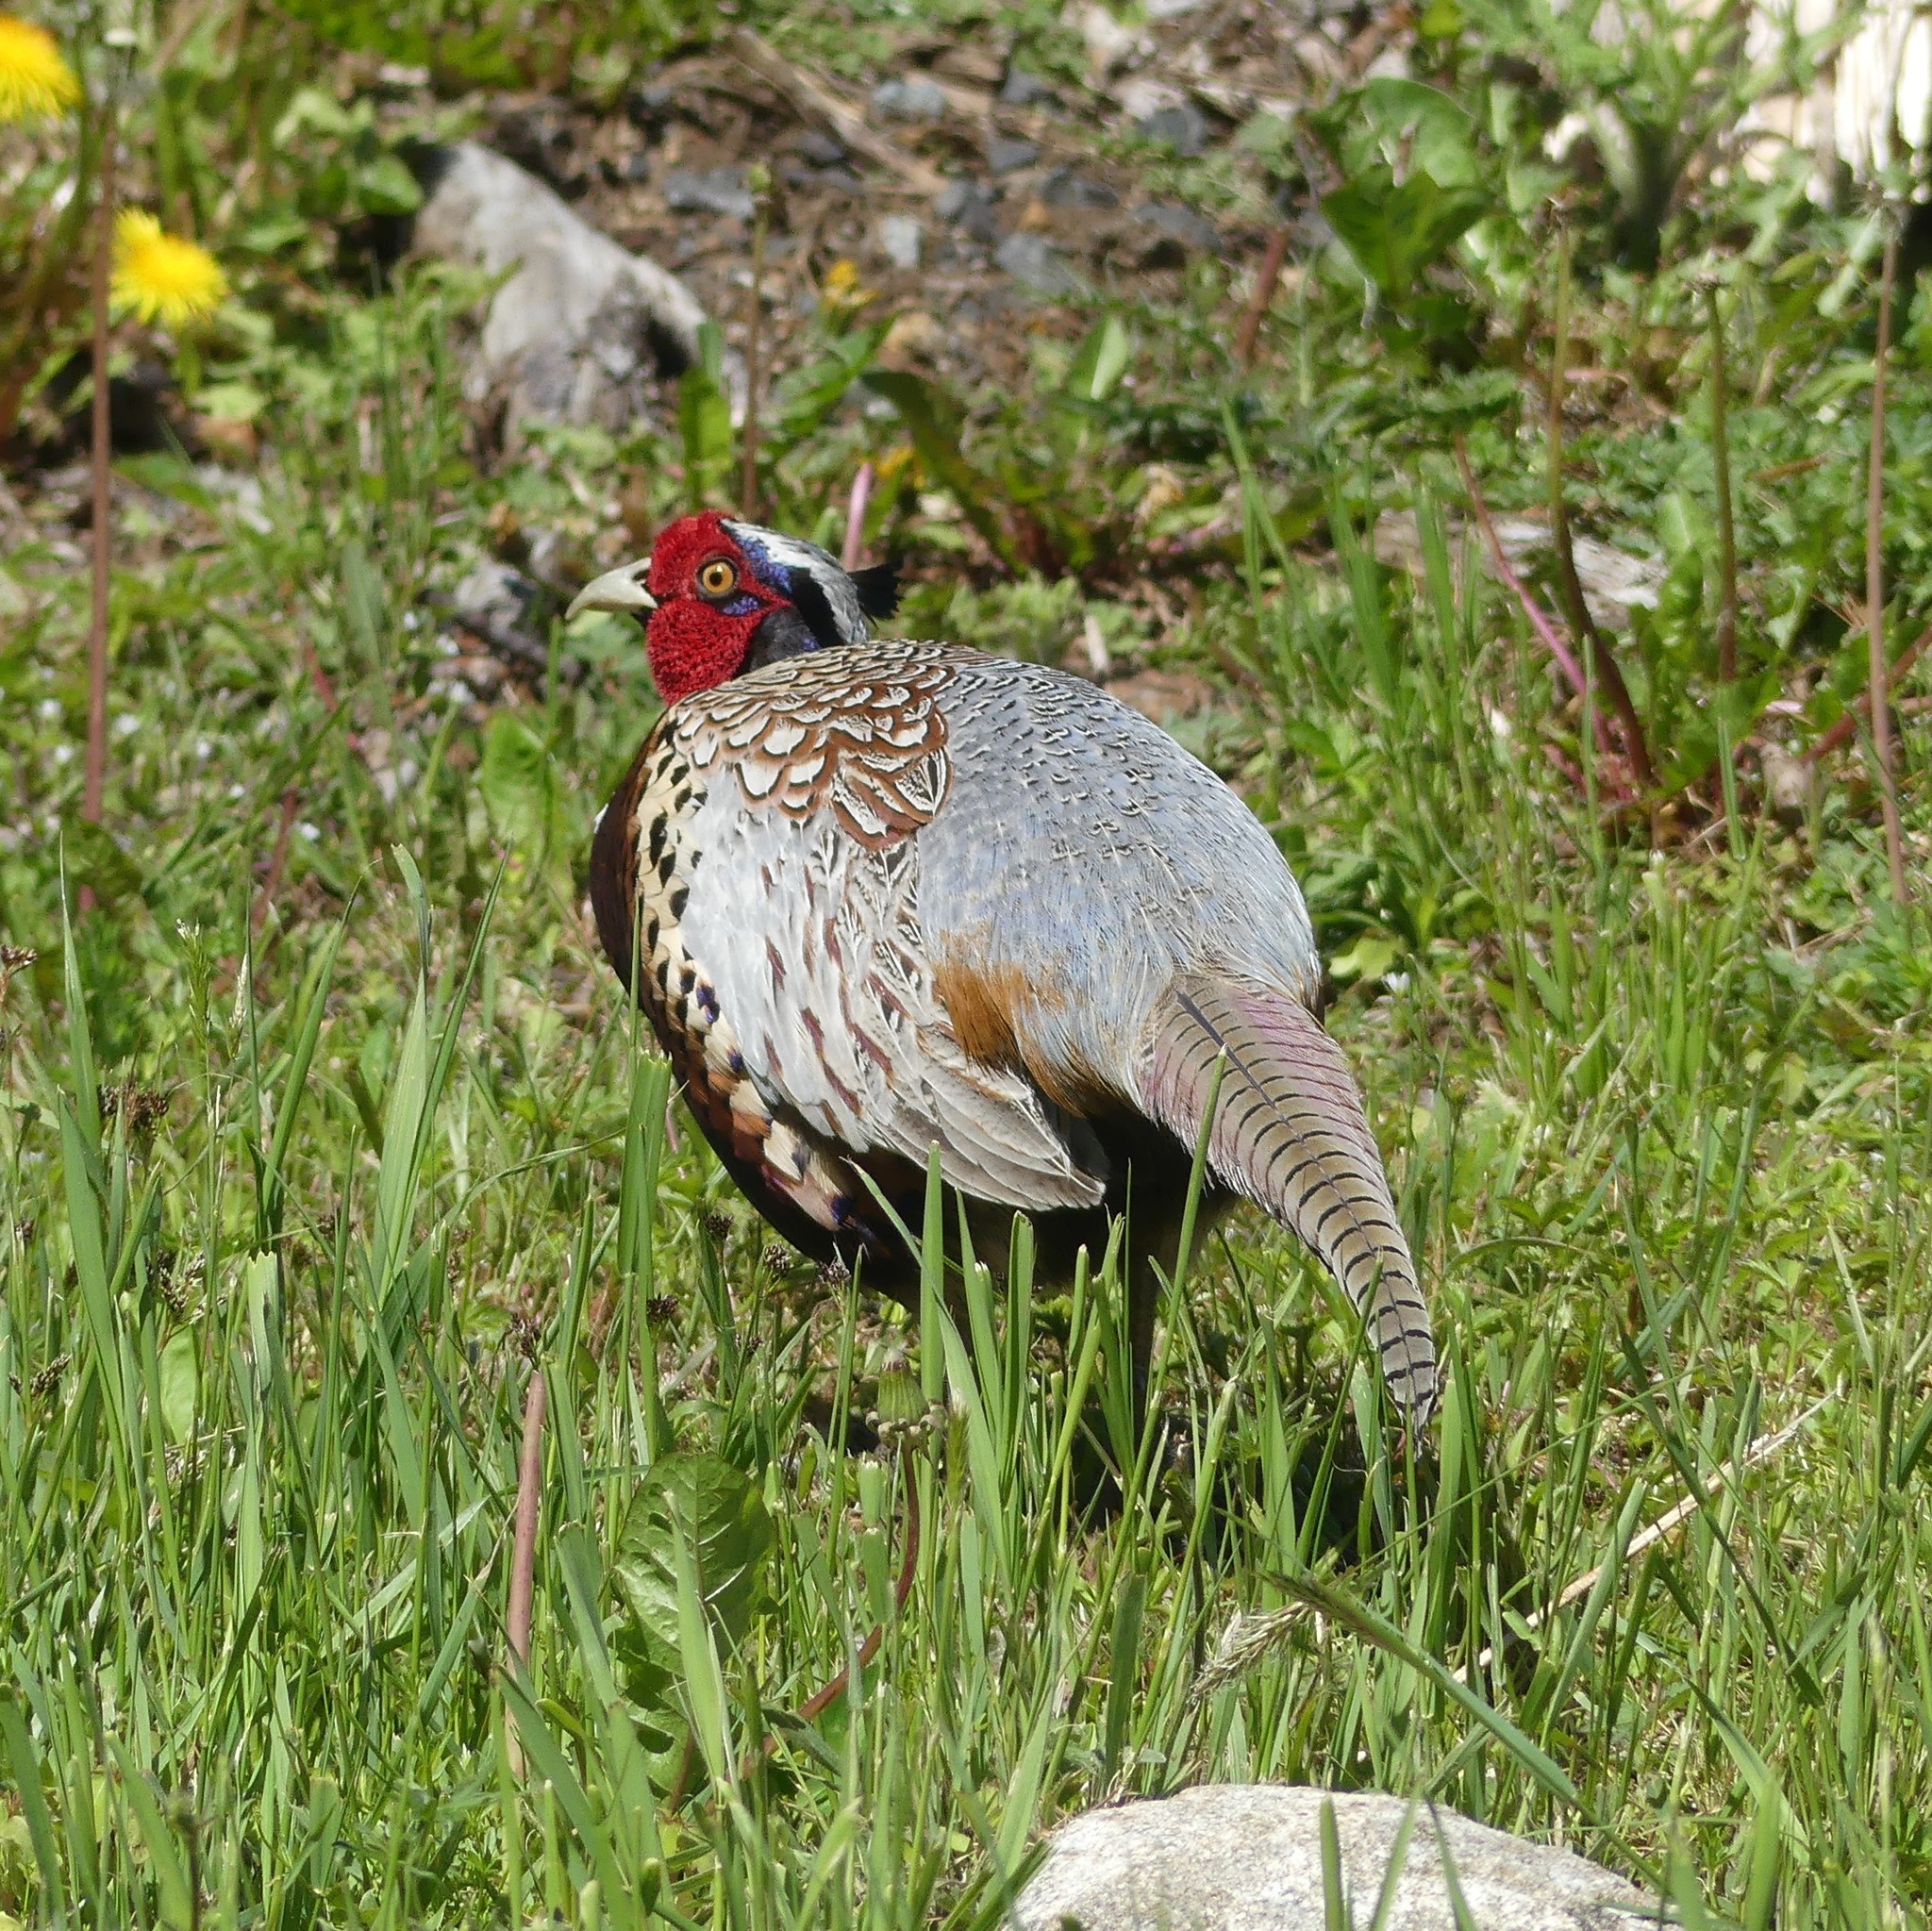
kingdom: Animalia
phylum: Chordata
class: Aves
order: Galliformes
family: Phasianidae
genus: Phasianus
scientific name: Phasianus colchicus
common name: Common pheasant
